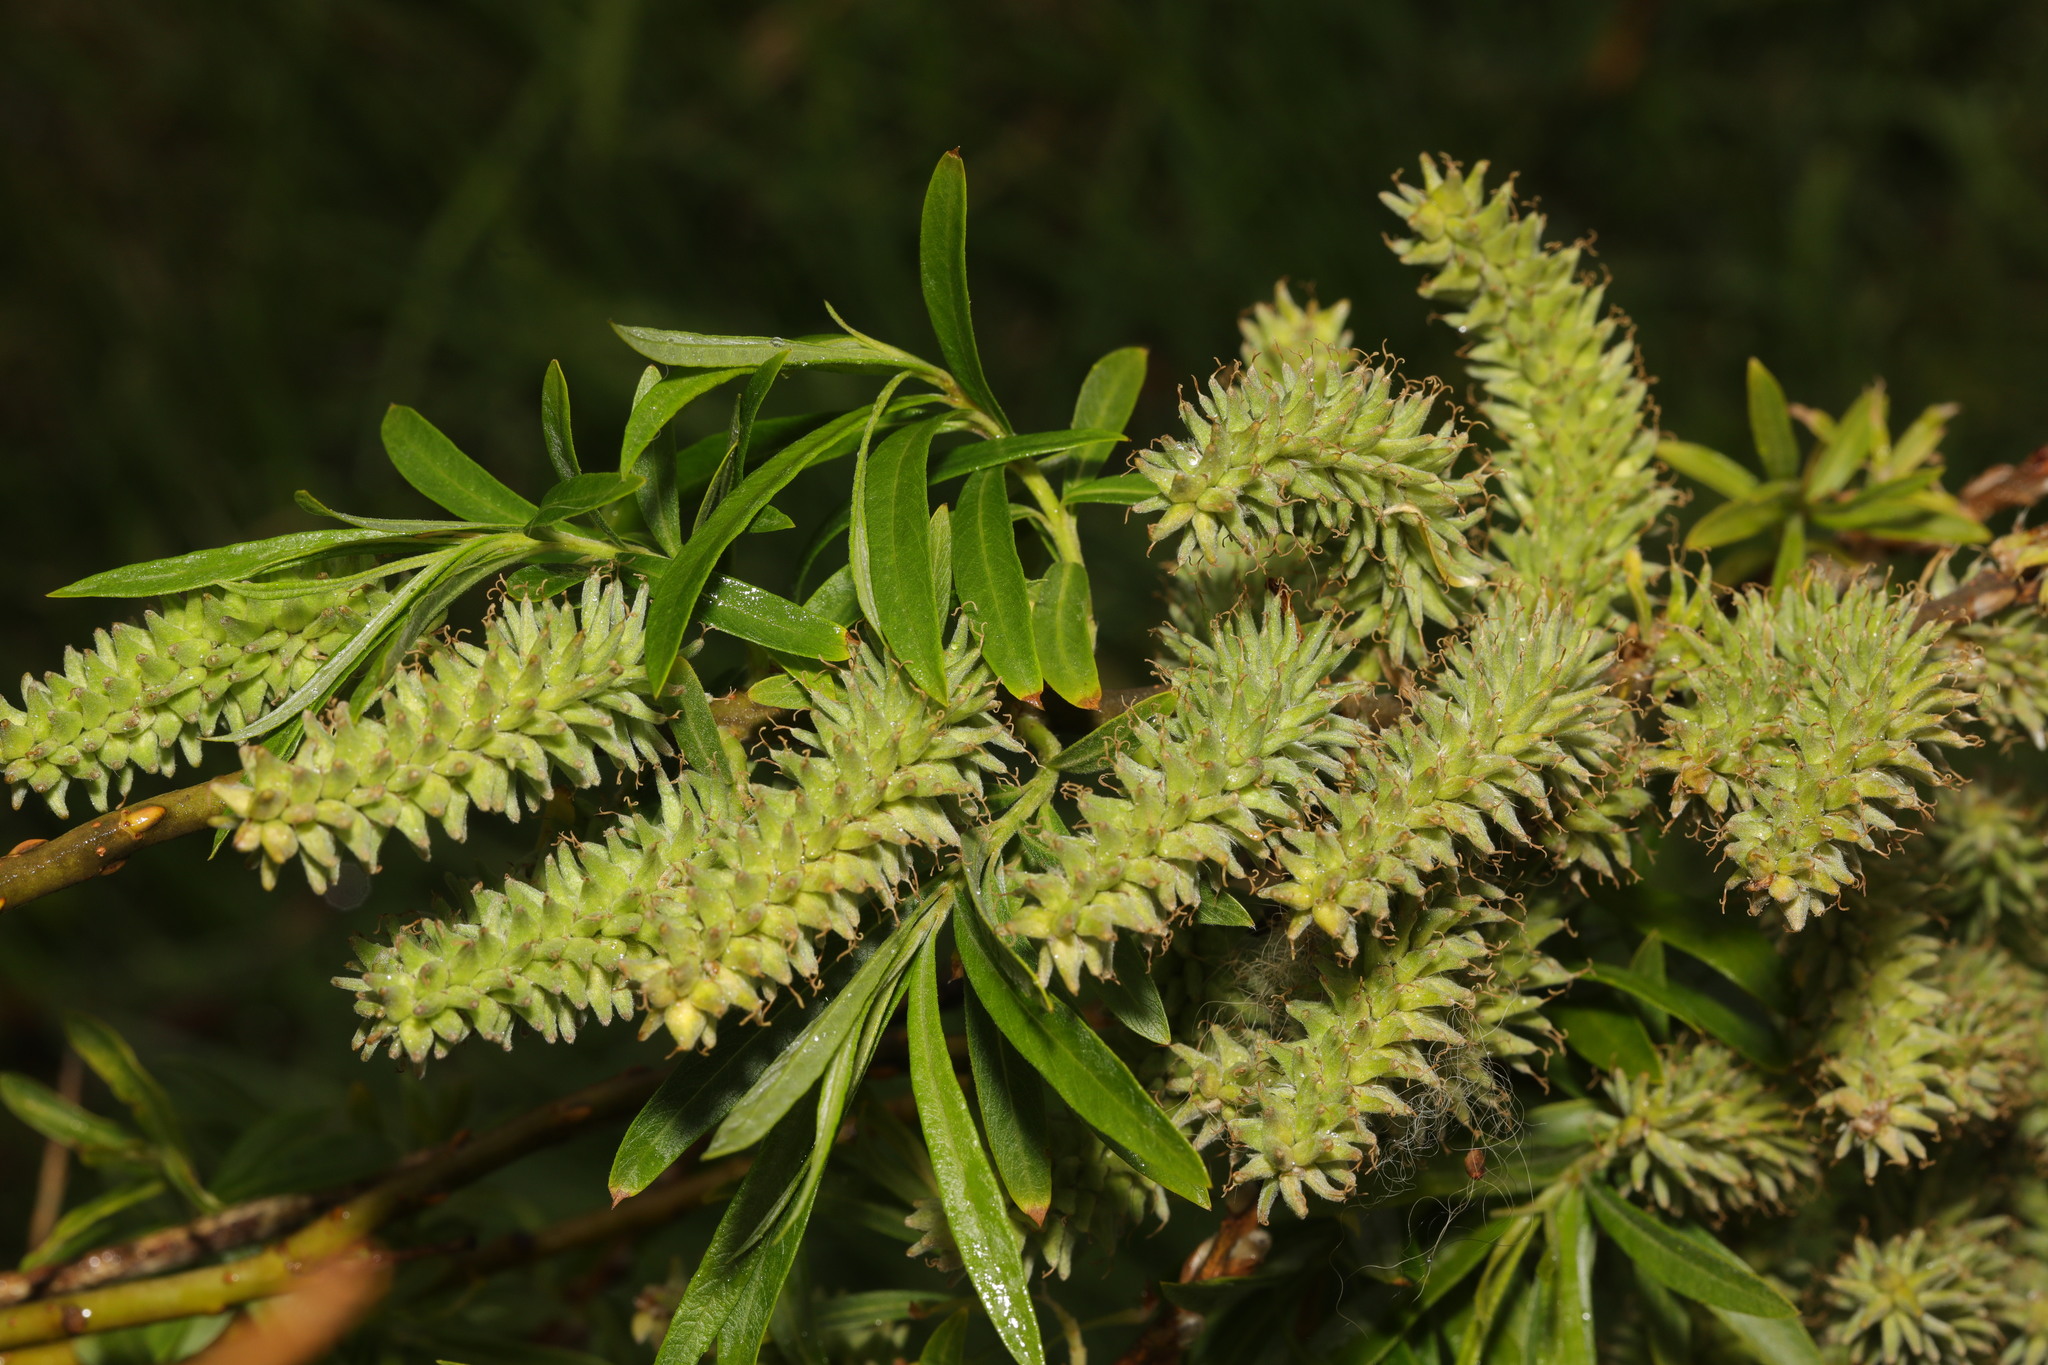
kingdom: Plantae
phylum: Tracheophyta
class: Magnoliopsida
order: Malpighiales
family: Salicaceae
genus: Salix
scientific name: Salix viminalis
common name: Osier
